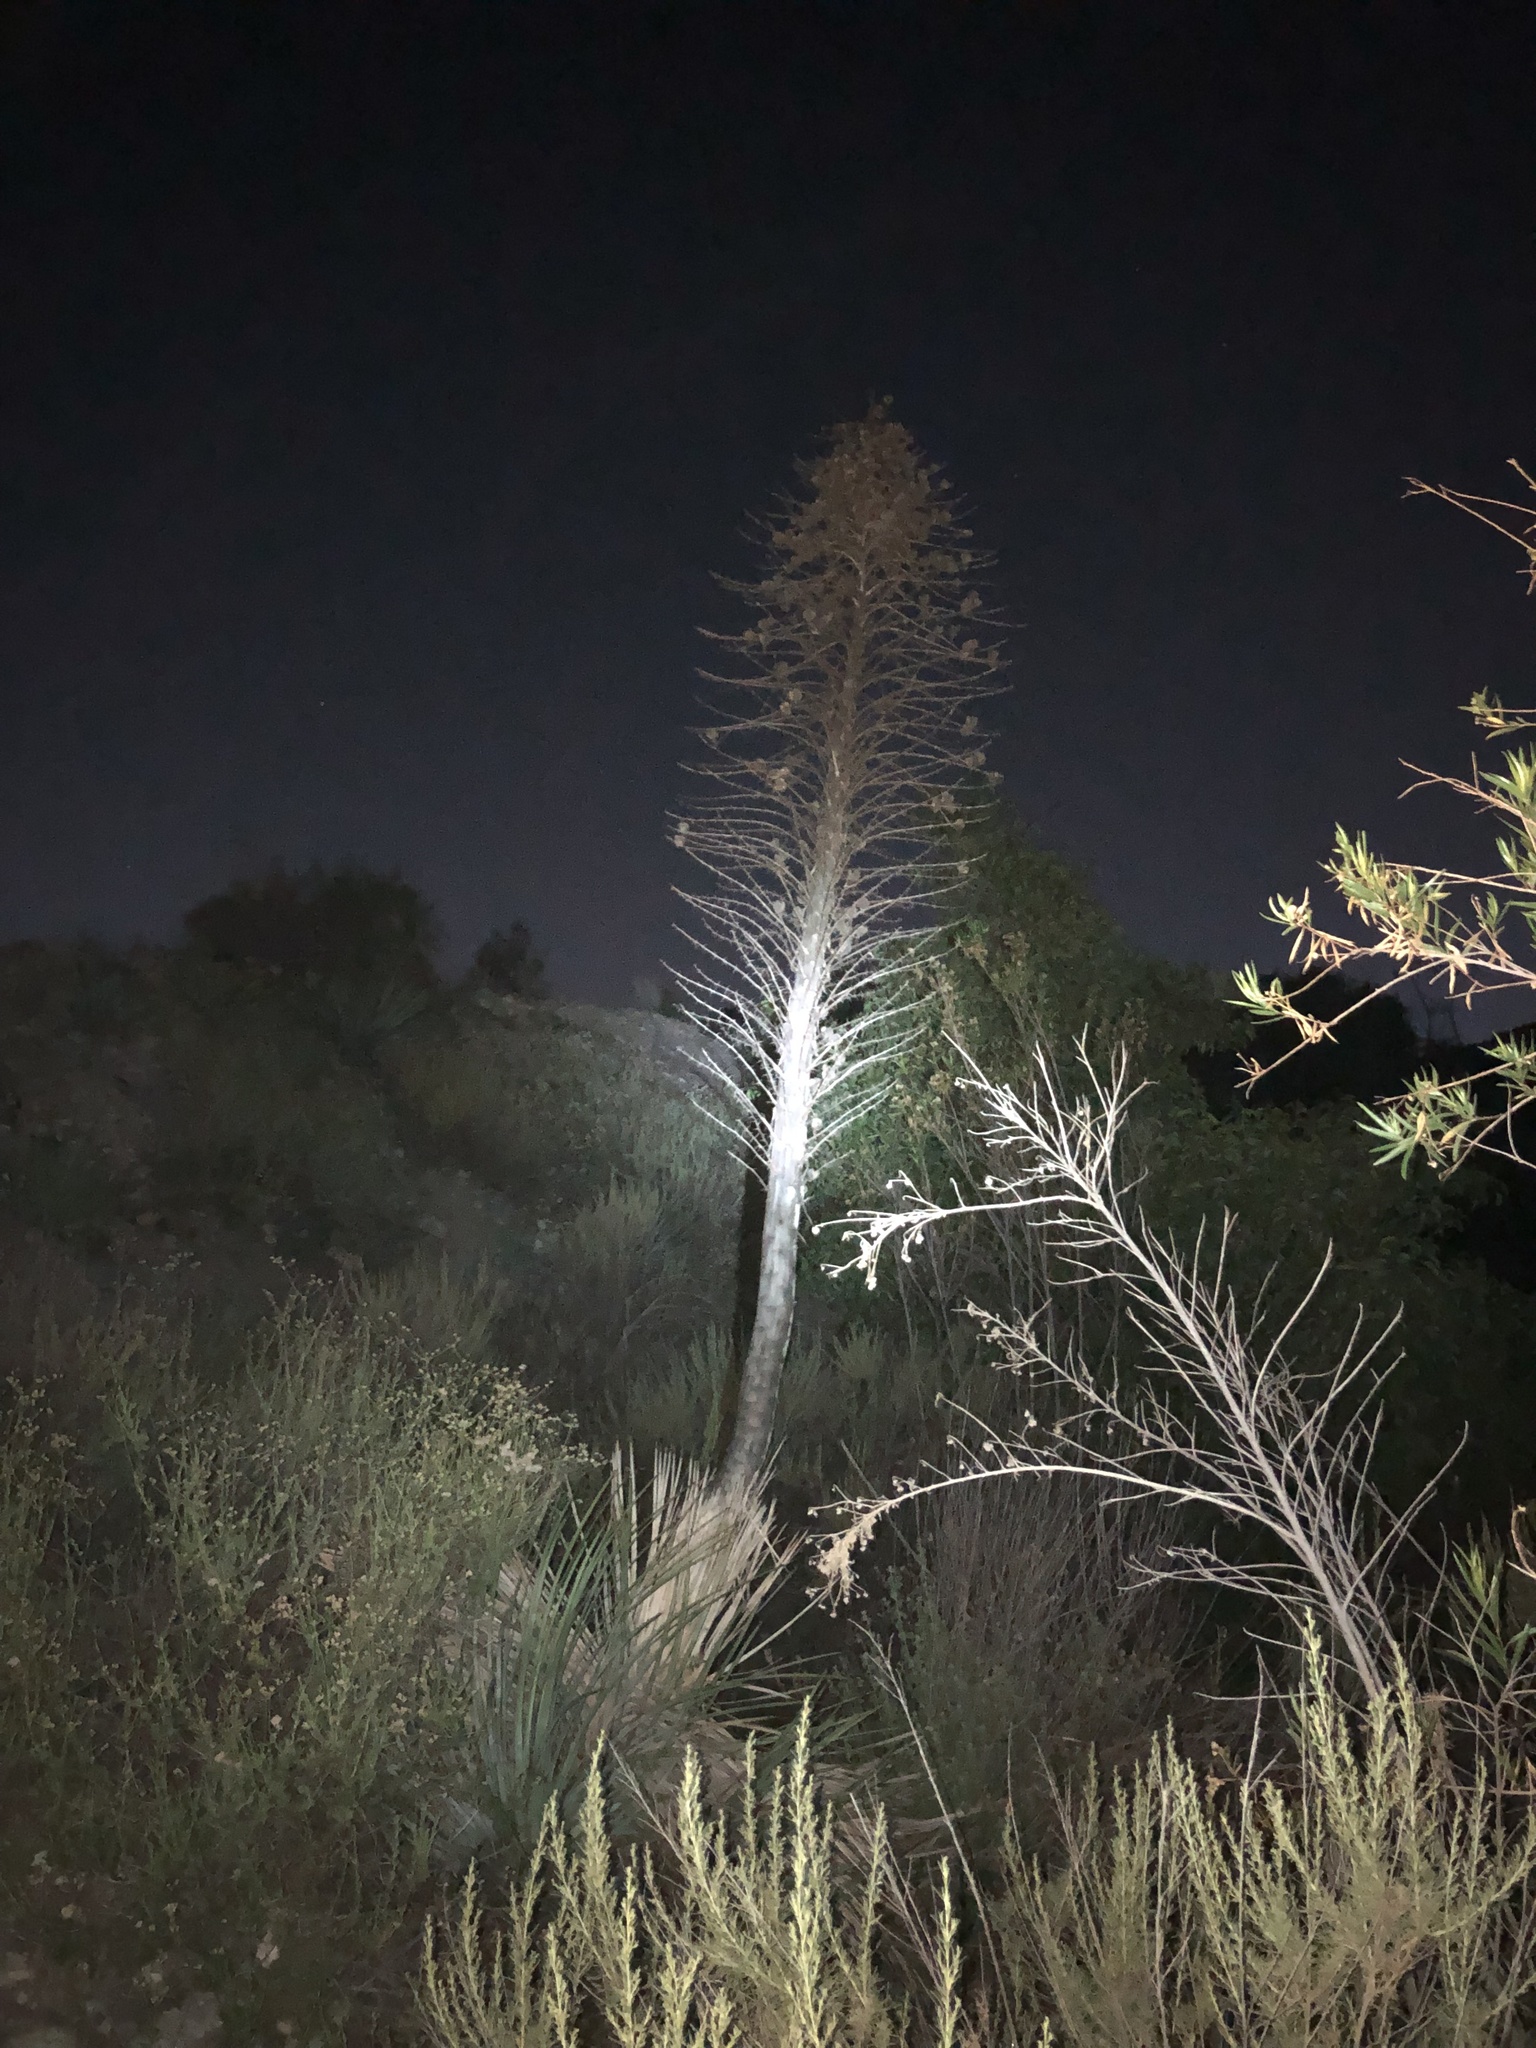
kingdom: Plantae
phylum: Tracheophyta
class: Liliopsida
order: Asparagales
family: Asparagaceae
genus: Hesperoyucca
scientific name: Hesperoyucca whipplei
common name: Our lord's-candle
